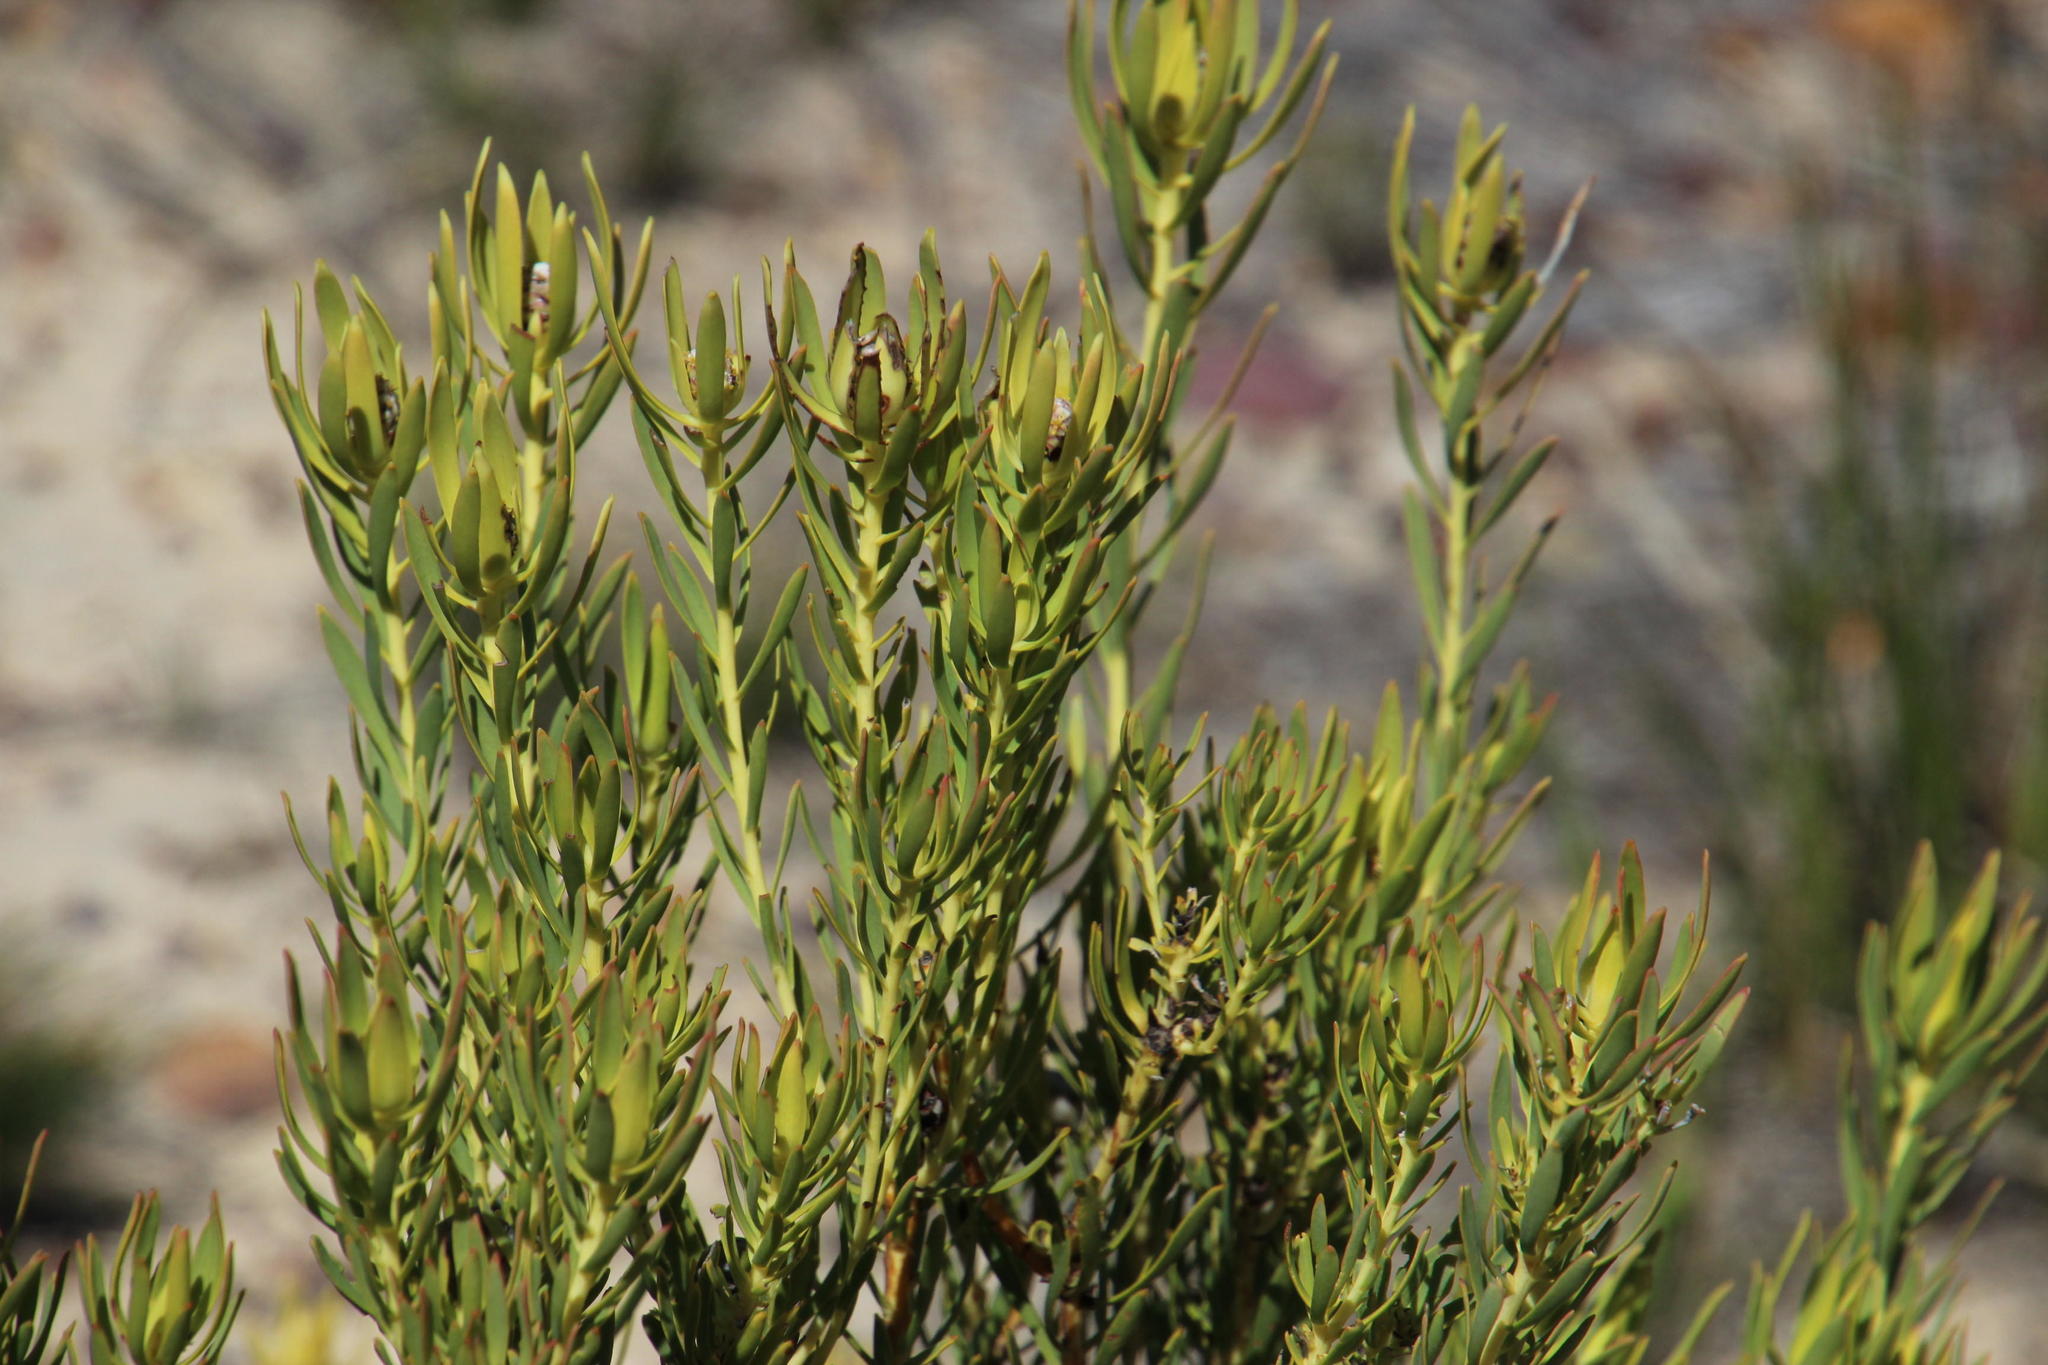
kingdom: Plantae
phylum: Tracheophyta
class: Magnoliopsida
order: Proteales
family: Proteaceae
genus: Leucadendron
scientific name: Leucadendron salignum
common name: Common sunshine conebush
